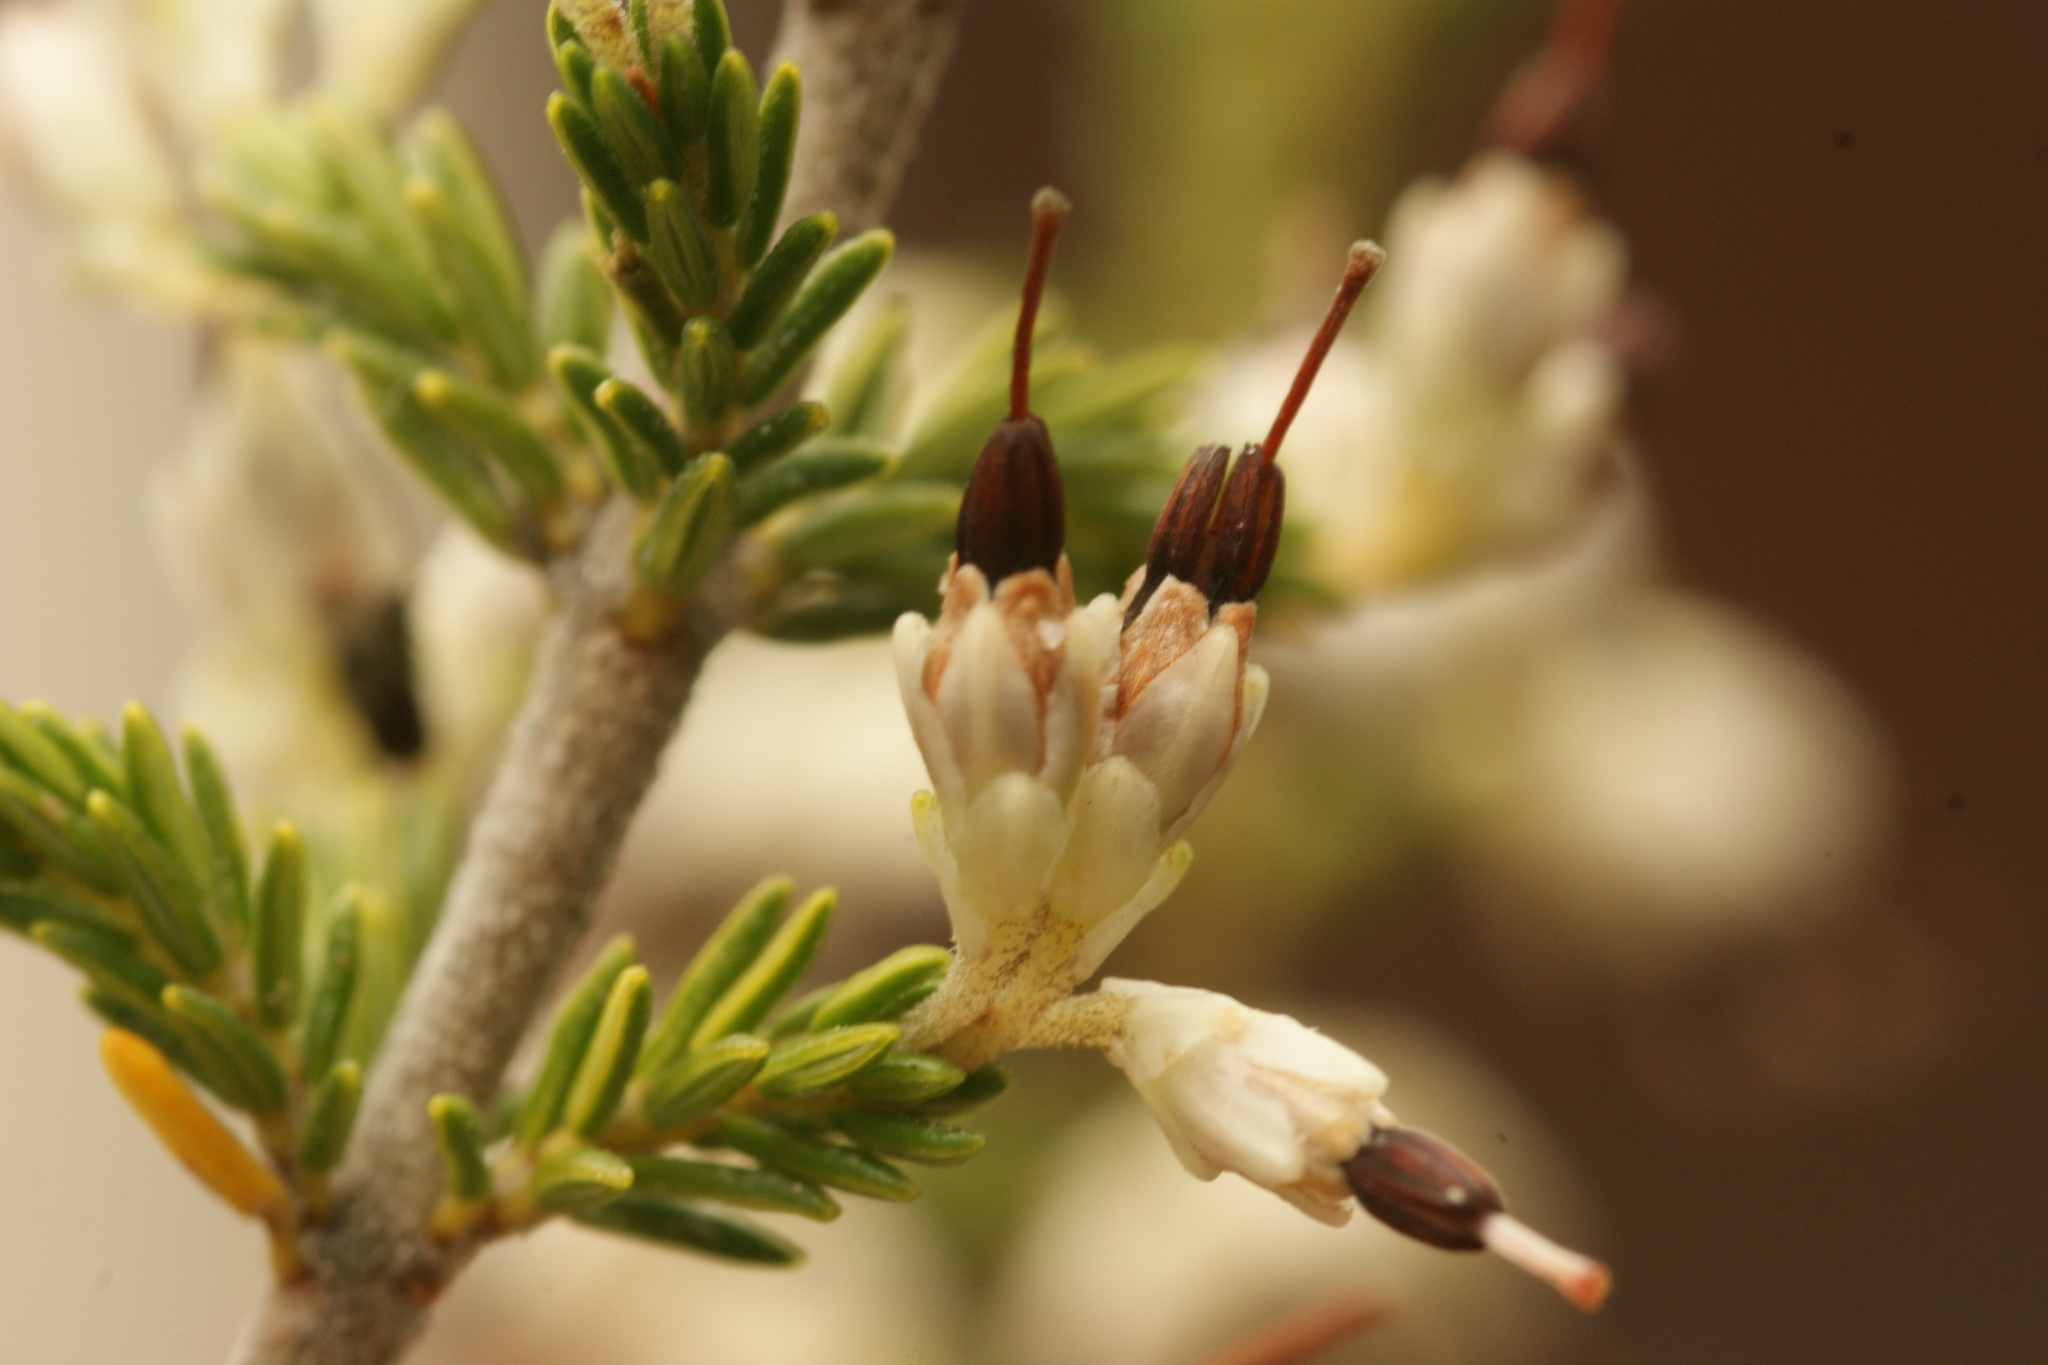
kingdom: Plantae
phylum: Tracheophyta
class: Magnoliopsida
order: Ericales
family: Ericaceae
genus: Erica
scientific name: Erica imbricata
